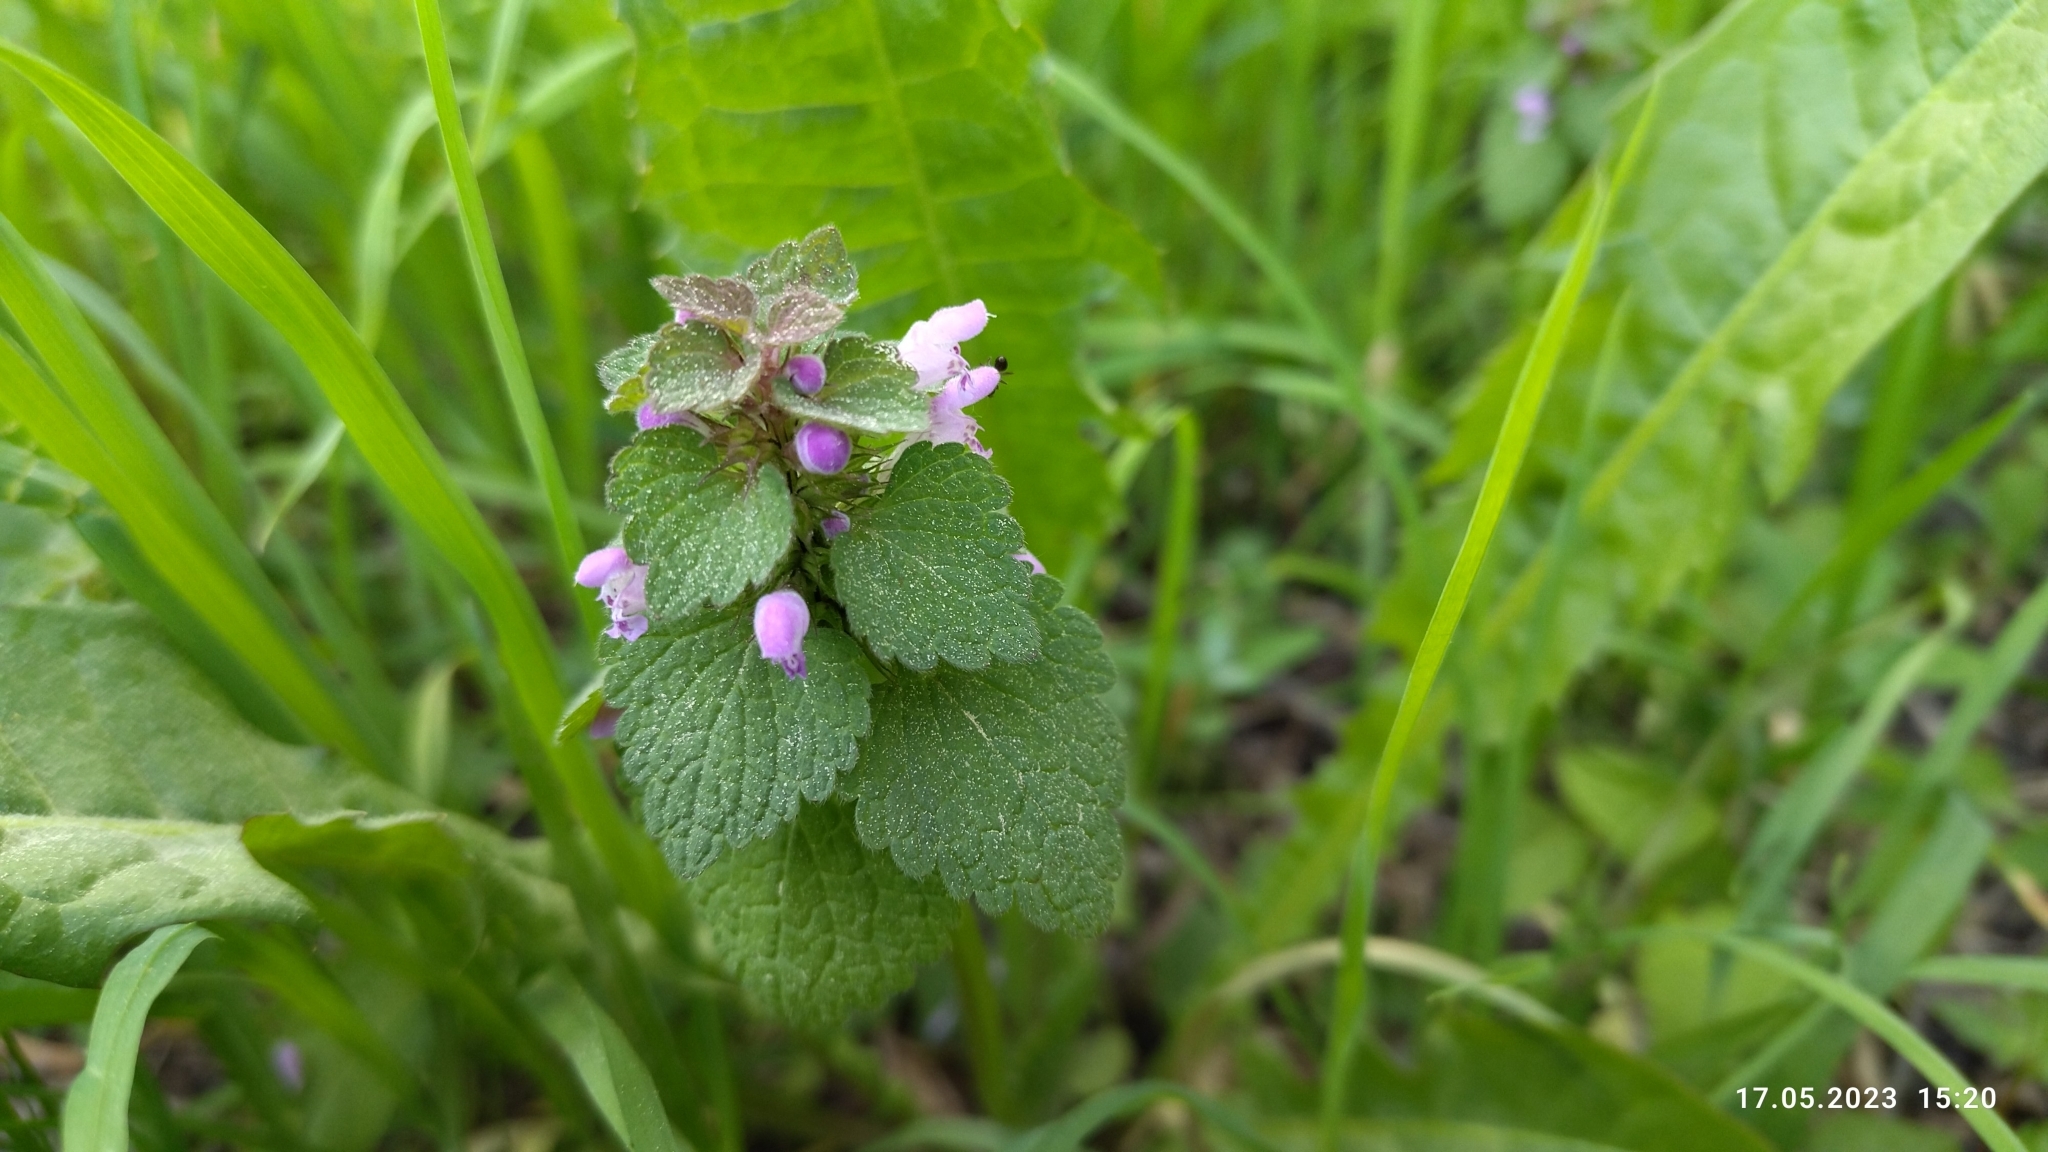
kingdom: Plantae
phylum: Tracheophyta
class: Magnoliopsida
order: Lamiales
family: Lamiaceae
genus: Lamium
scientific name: Lamium purpureum
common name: Red dead-nettle
